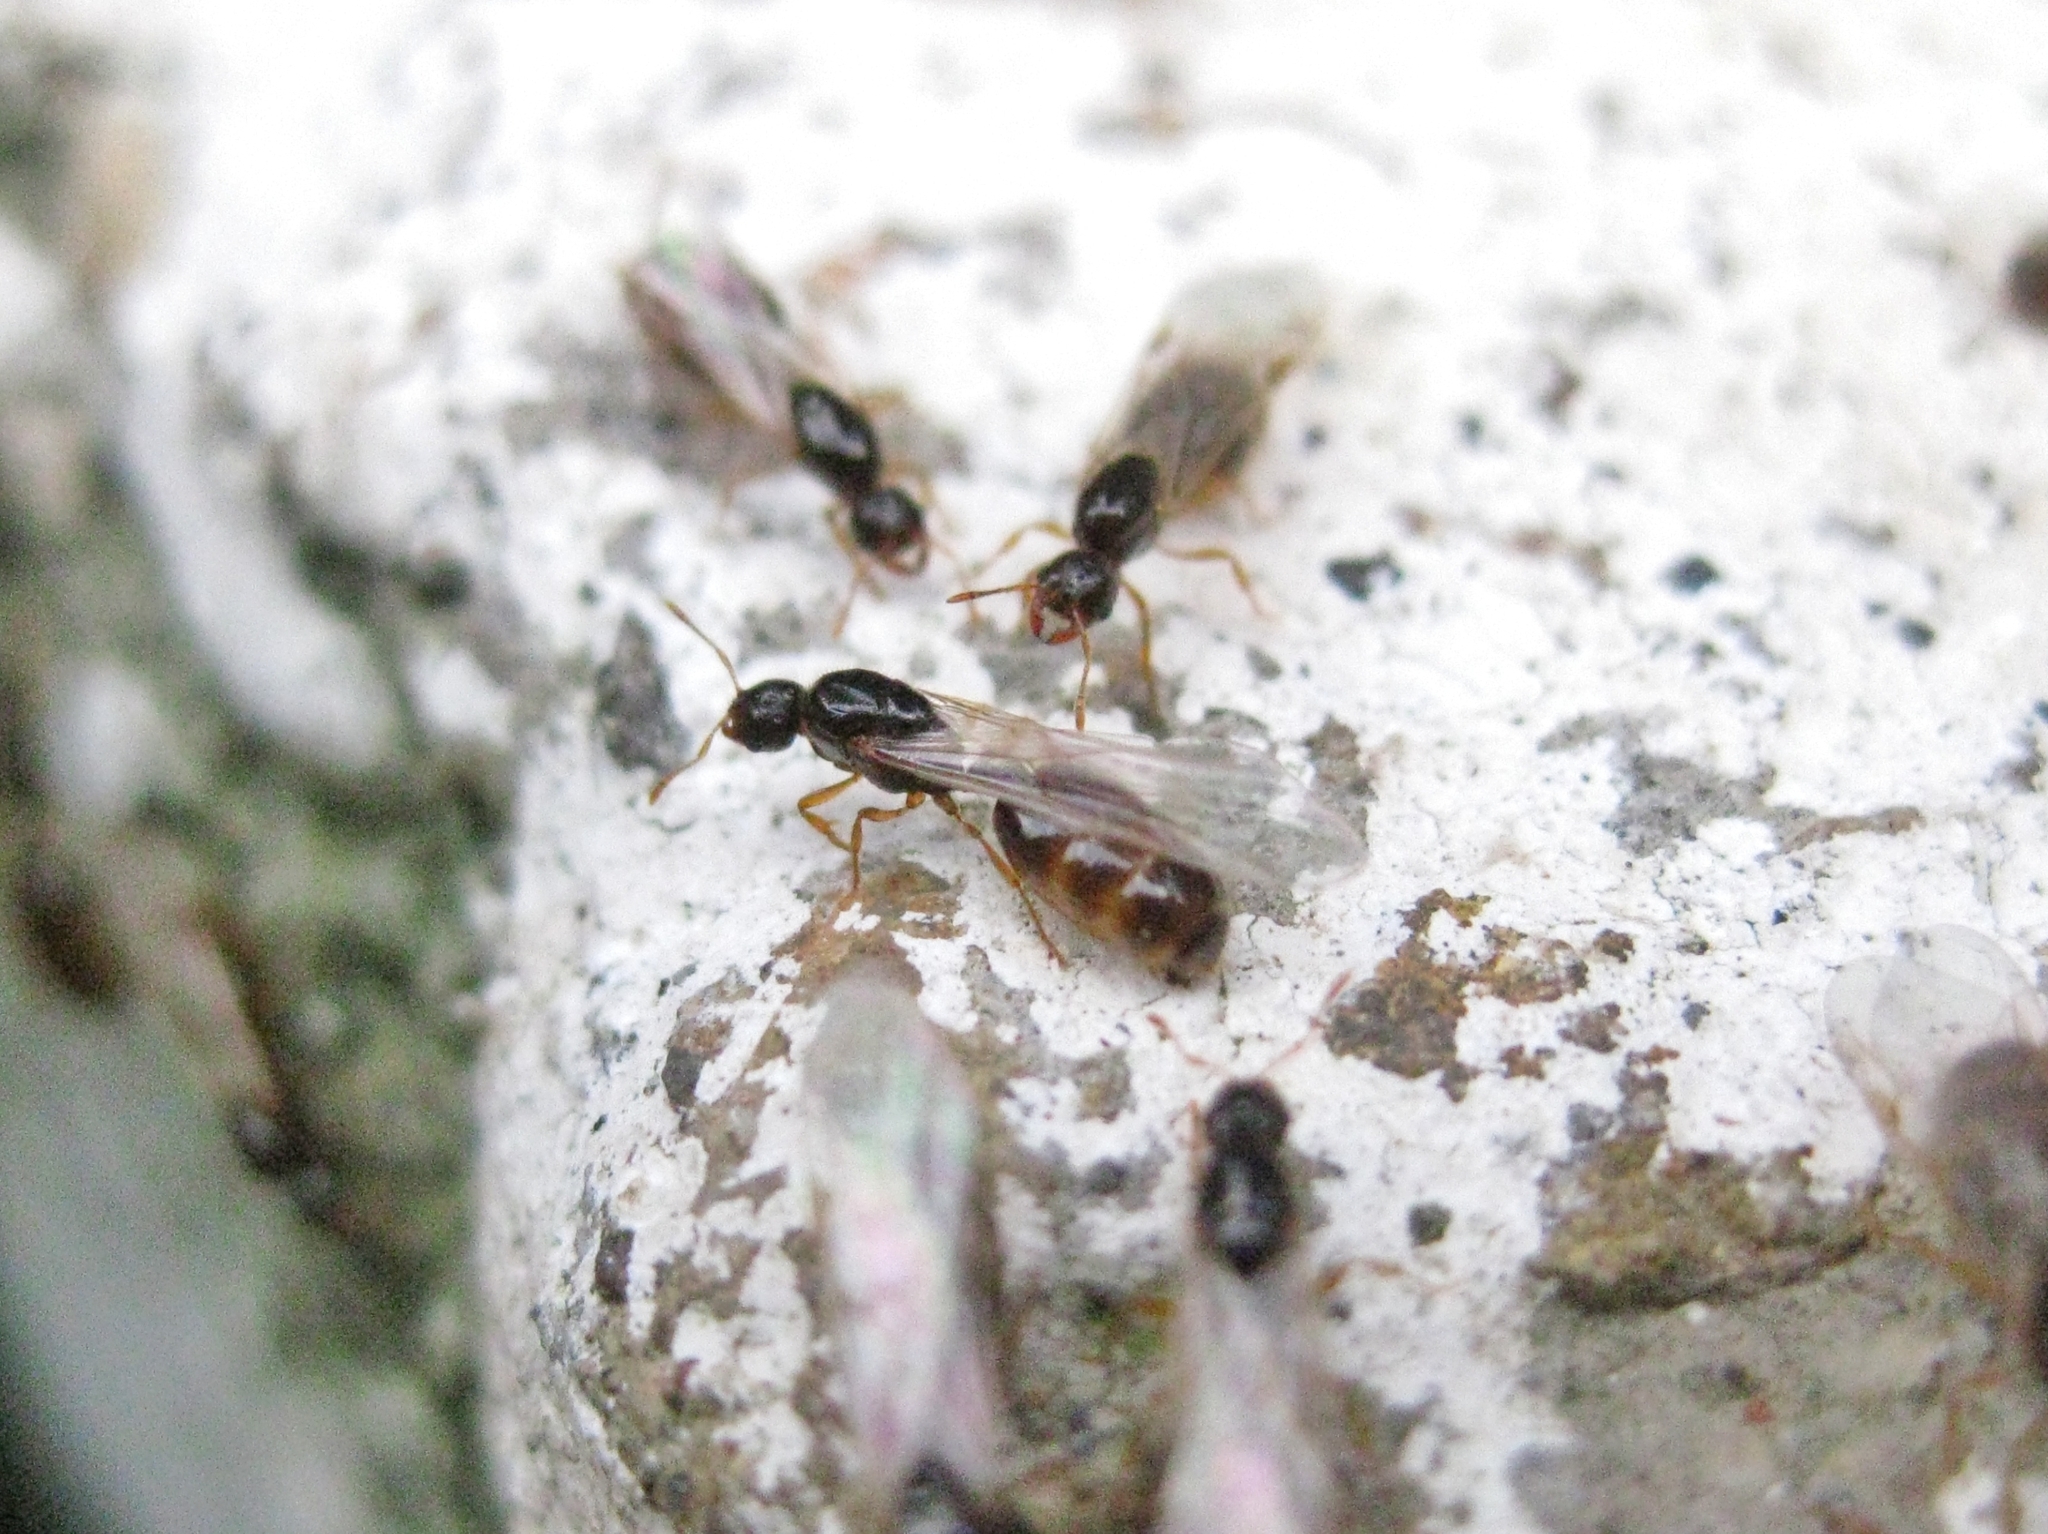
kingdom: Animalia
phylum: Arthropoda
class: Insecta
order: Hymenoptera
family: Formicidae
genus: Solenopsis
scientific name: Solenopsis
